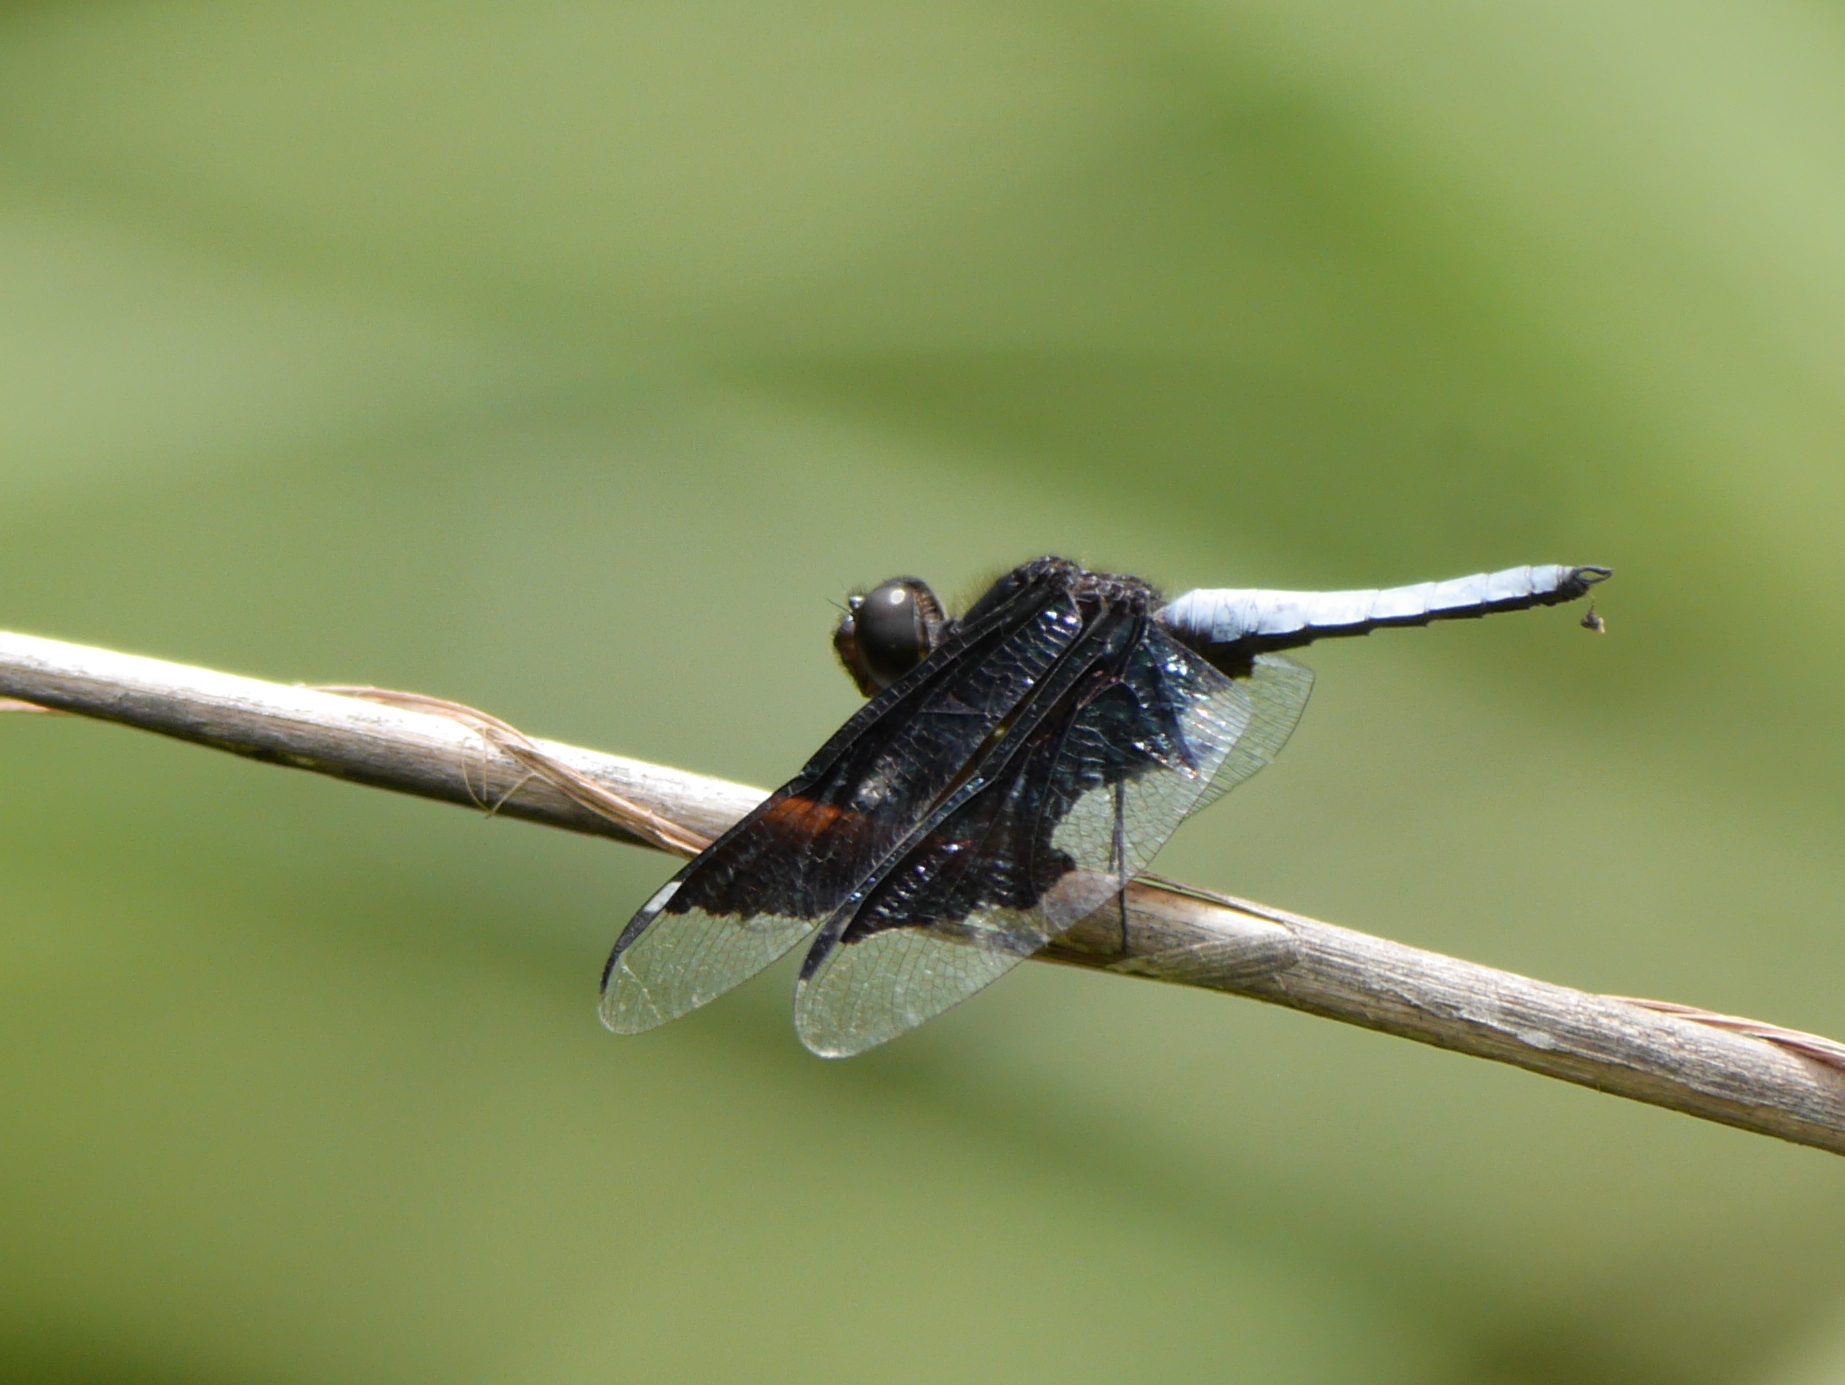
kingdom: Animalia
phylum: Arthropoda
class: Insecta
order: Odonata
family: Libellulidae
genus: Palpopleura
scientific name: Palpopleura lucia
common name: Lucia widow
